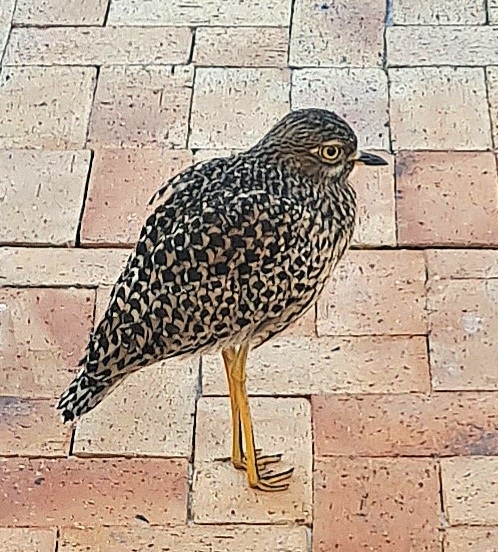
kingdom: Animalia
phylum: Chordata
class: Aves
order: Charadriiformes
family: Burhinidae
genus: Burhinus
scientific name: Burhinus capensis
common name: Spotted thick-knee
